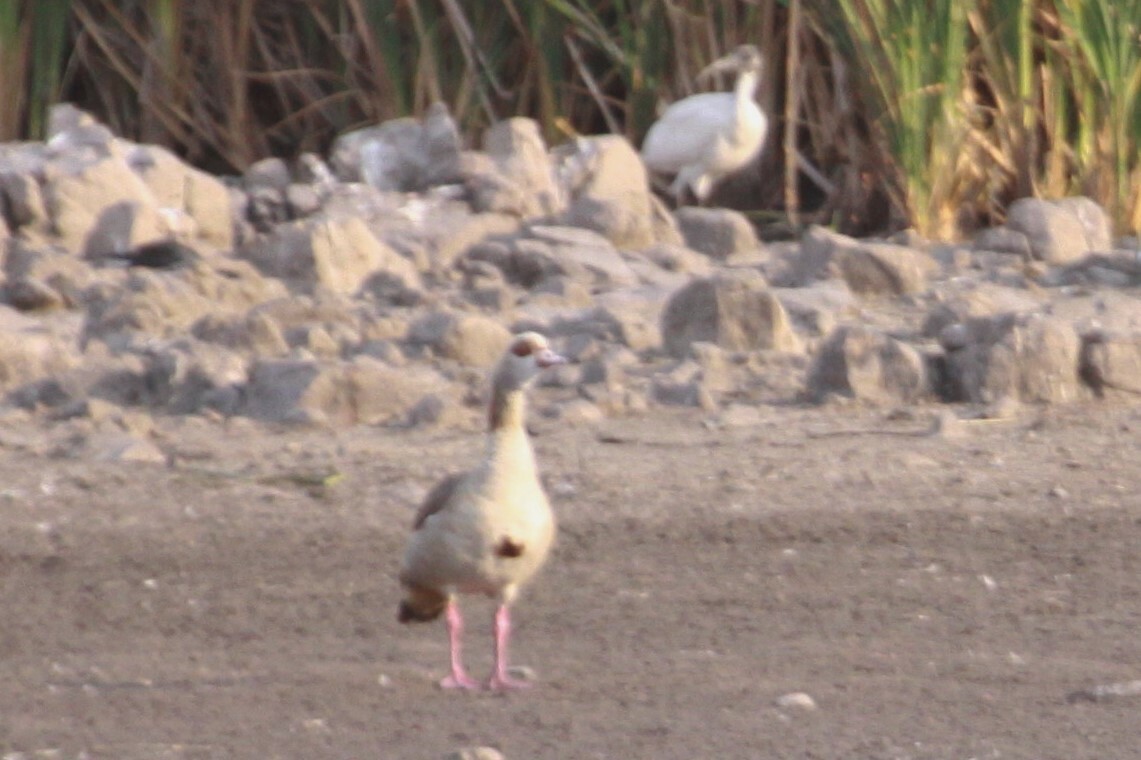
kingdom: Animalia
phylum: Chordata
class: Aves
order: Anseriformes
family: Anatidae
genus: Alopochen
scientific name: Alopochen aegyptiaca
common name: Egyptian goose
